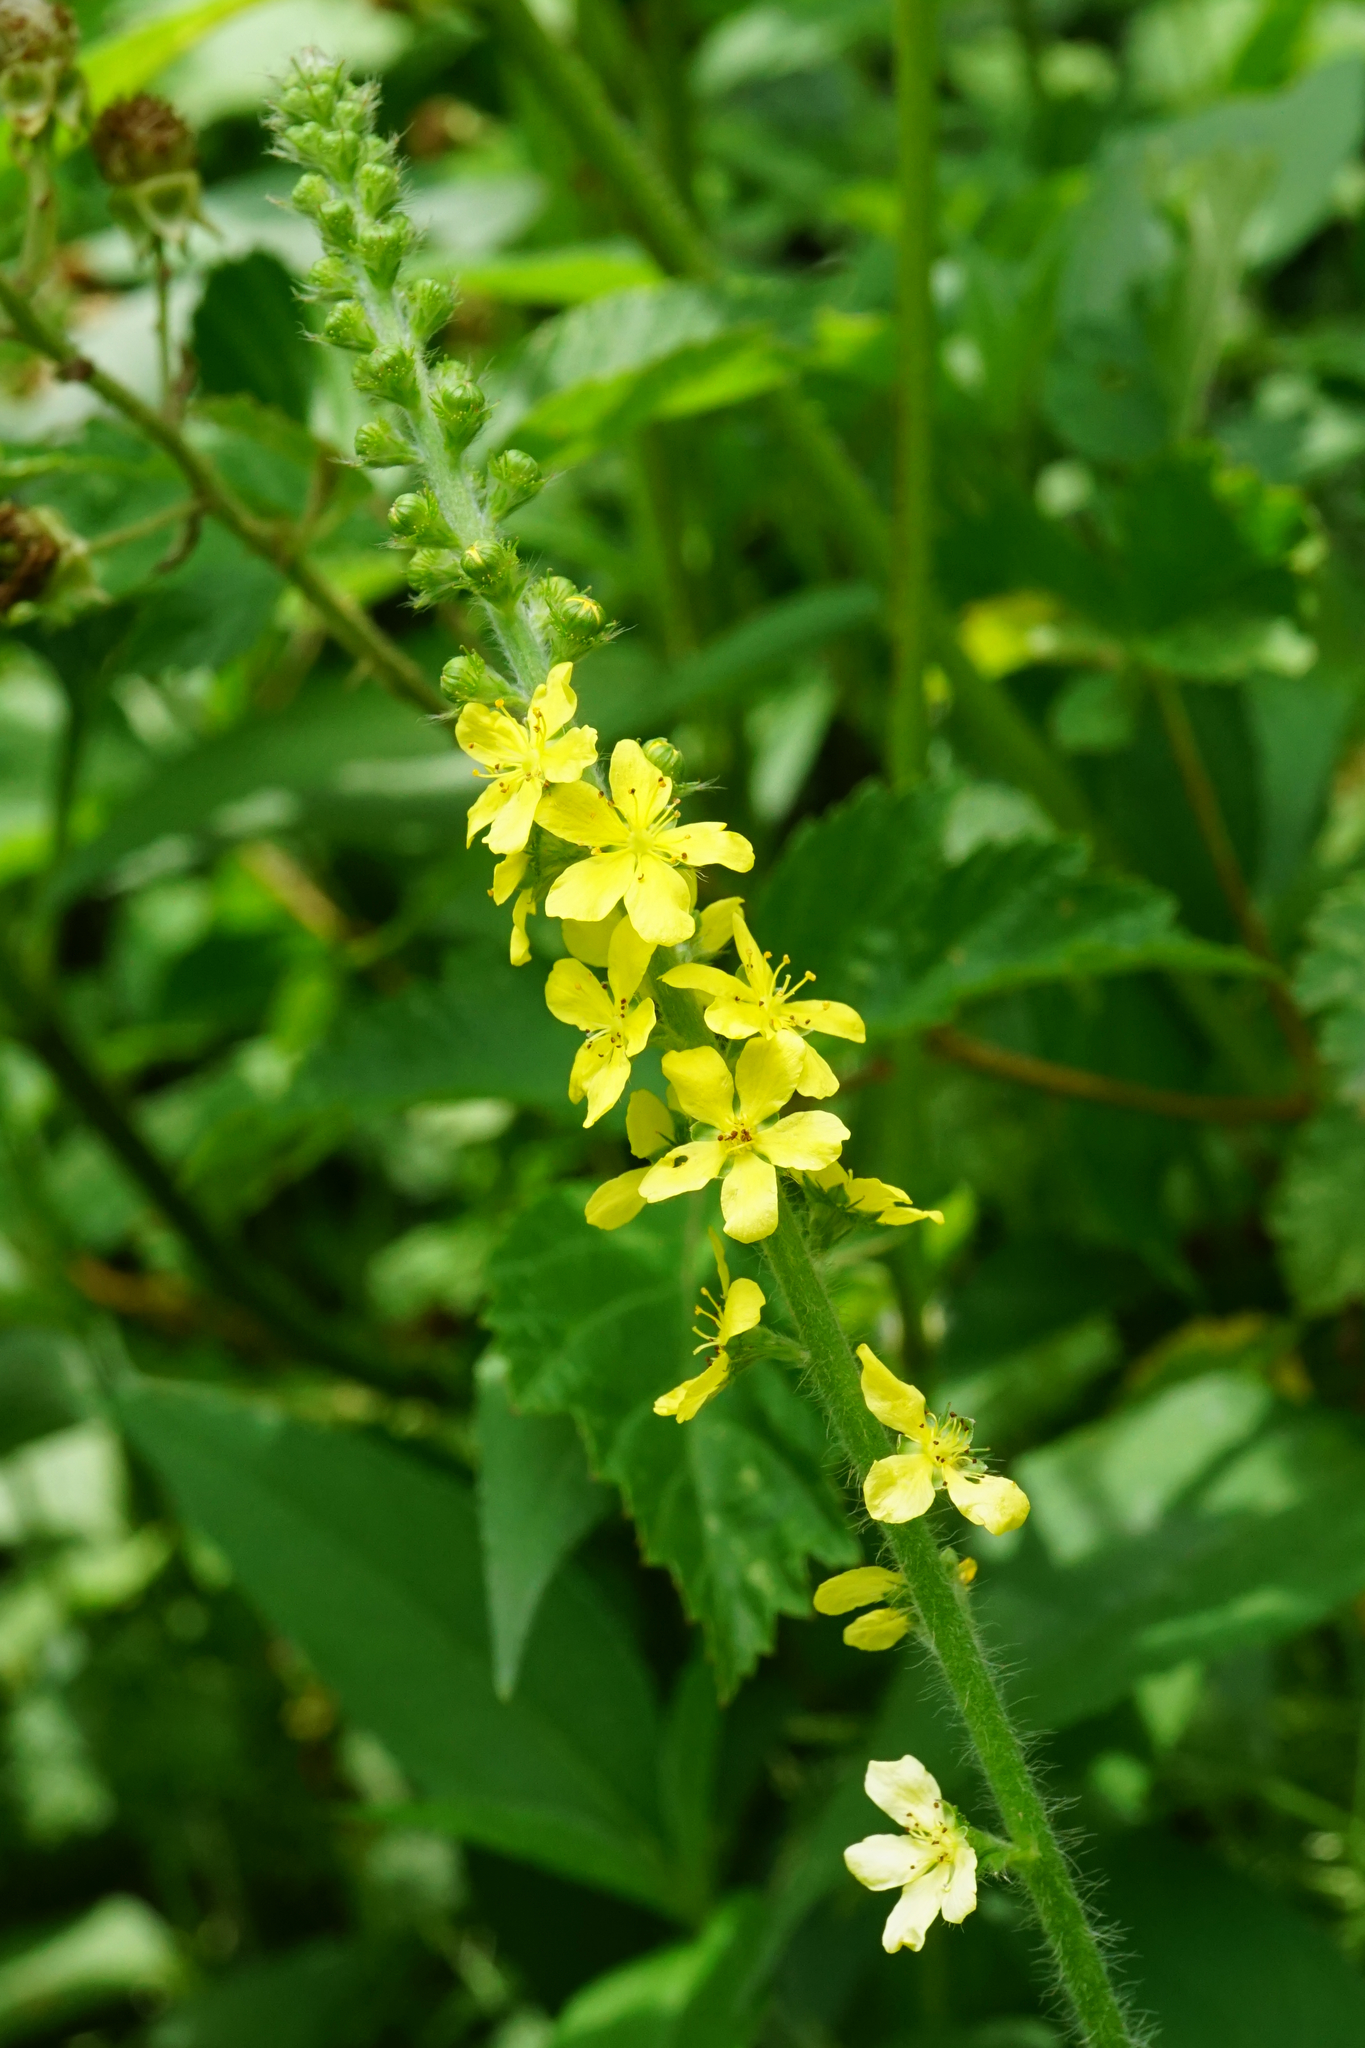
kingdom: Plantae
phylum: Tracheophyta
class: Magnoliopsida
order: Rosales
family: Rosaceae
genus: Agrimonia
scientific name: Agrimonia eupatoria
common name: Agrimony
